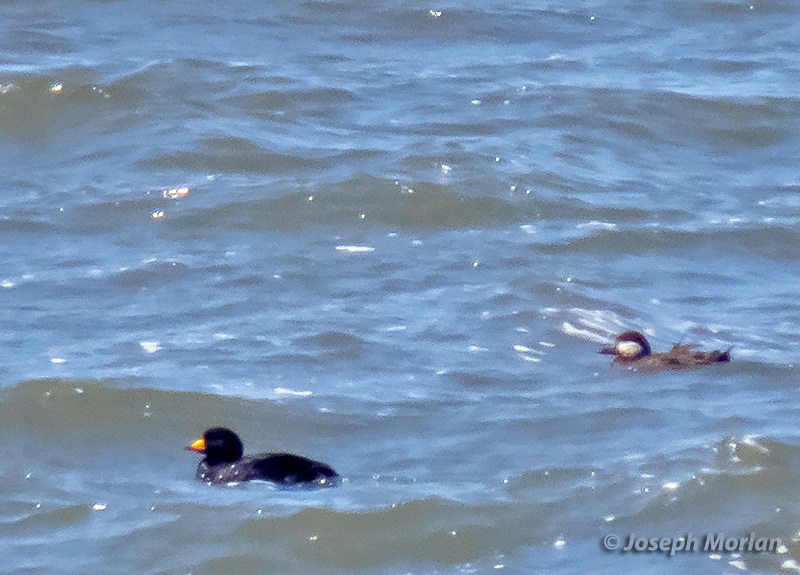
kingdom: Animalia
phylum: Chordata
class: Aves
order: Anseriformes
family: Anatidae
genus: Melanitta
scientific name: Melanitta americana
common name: Black scoter
